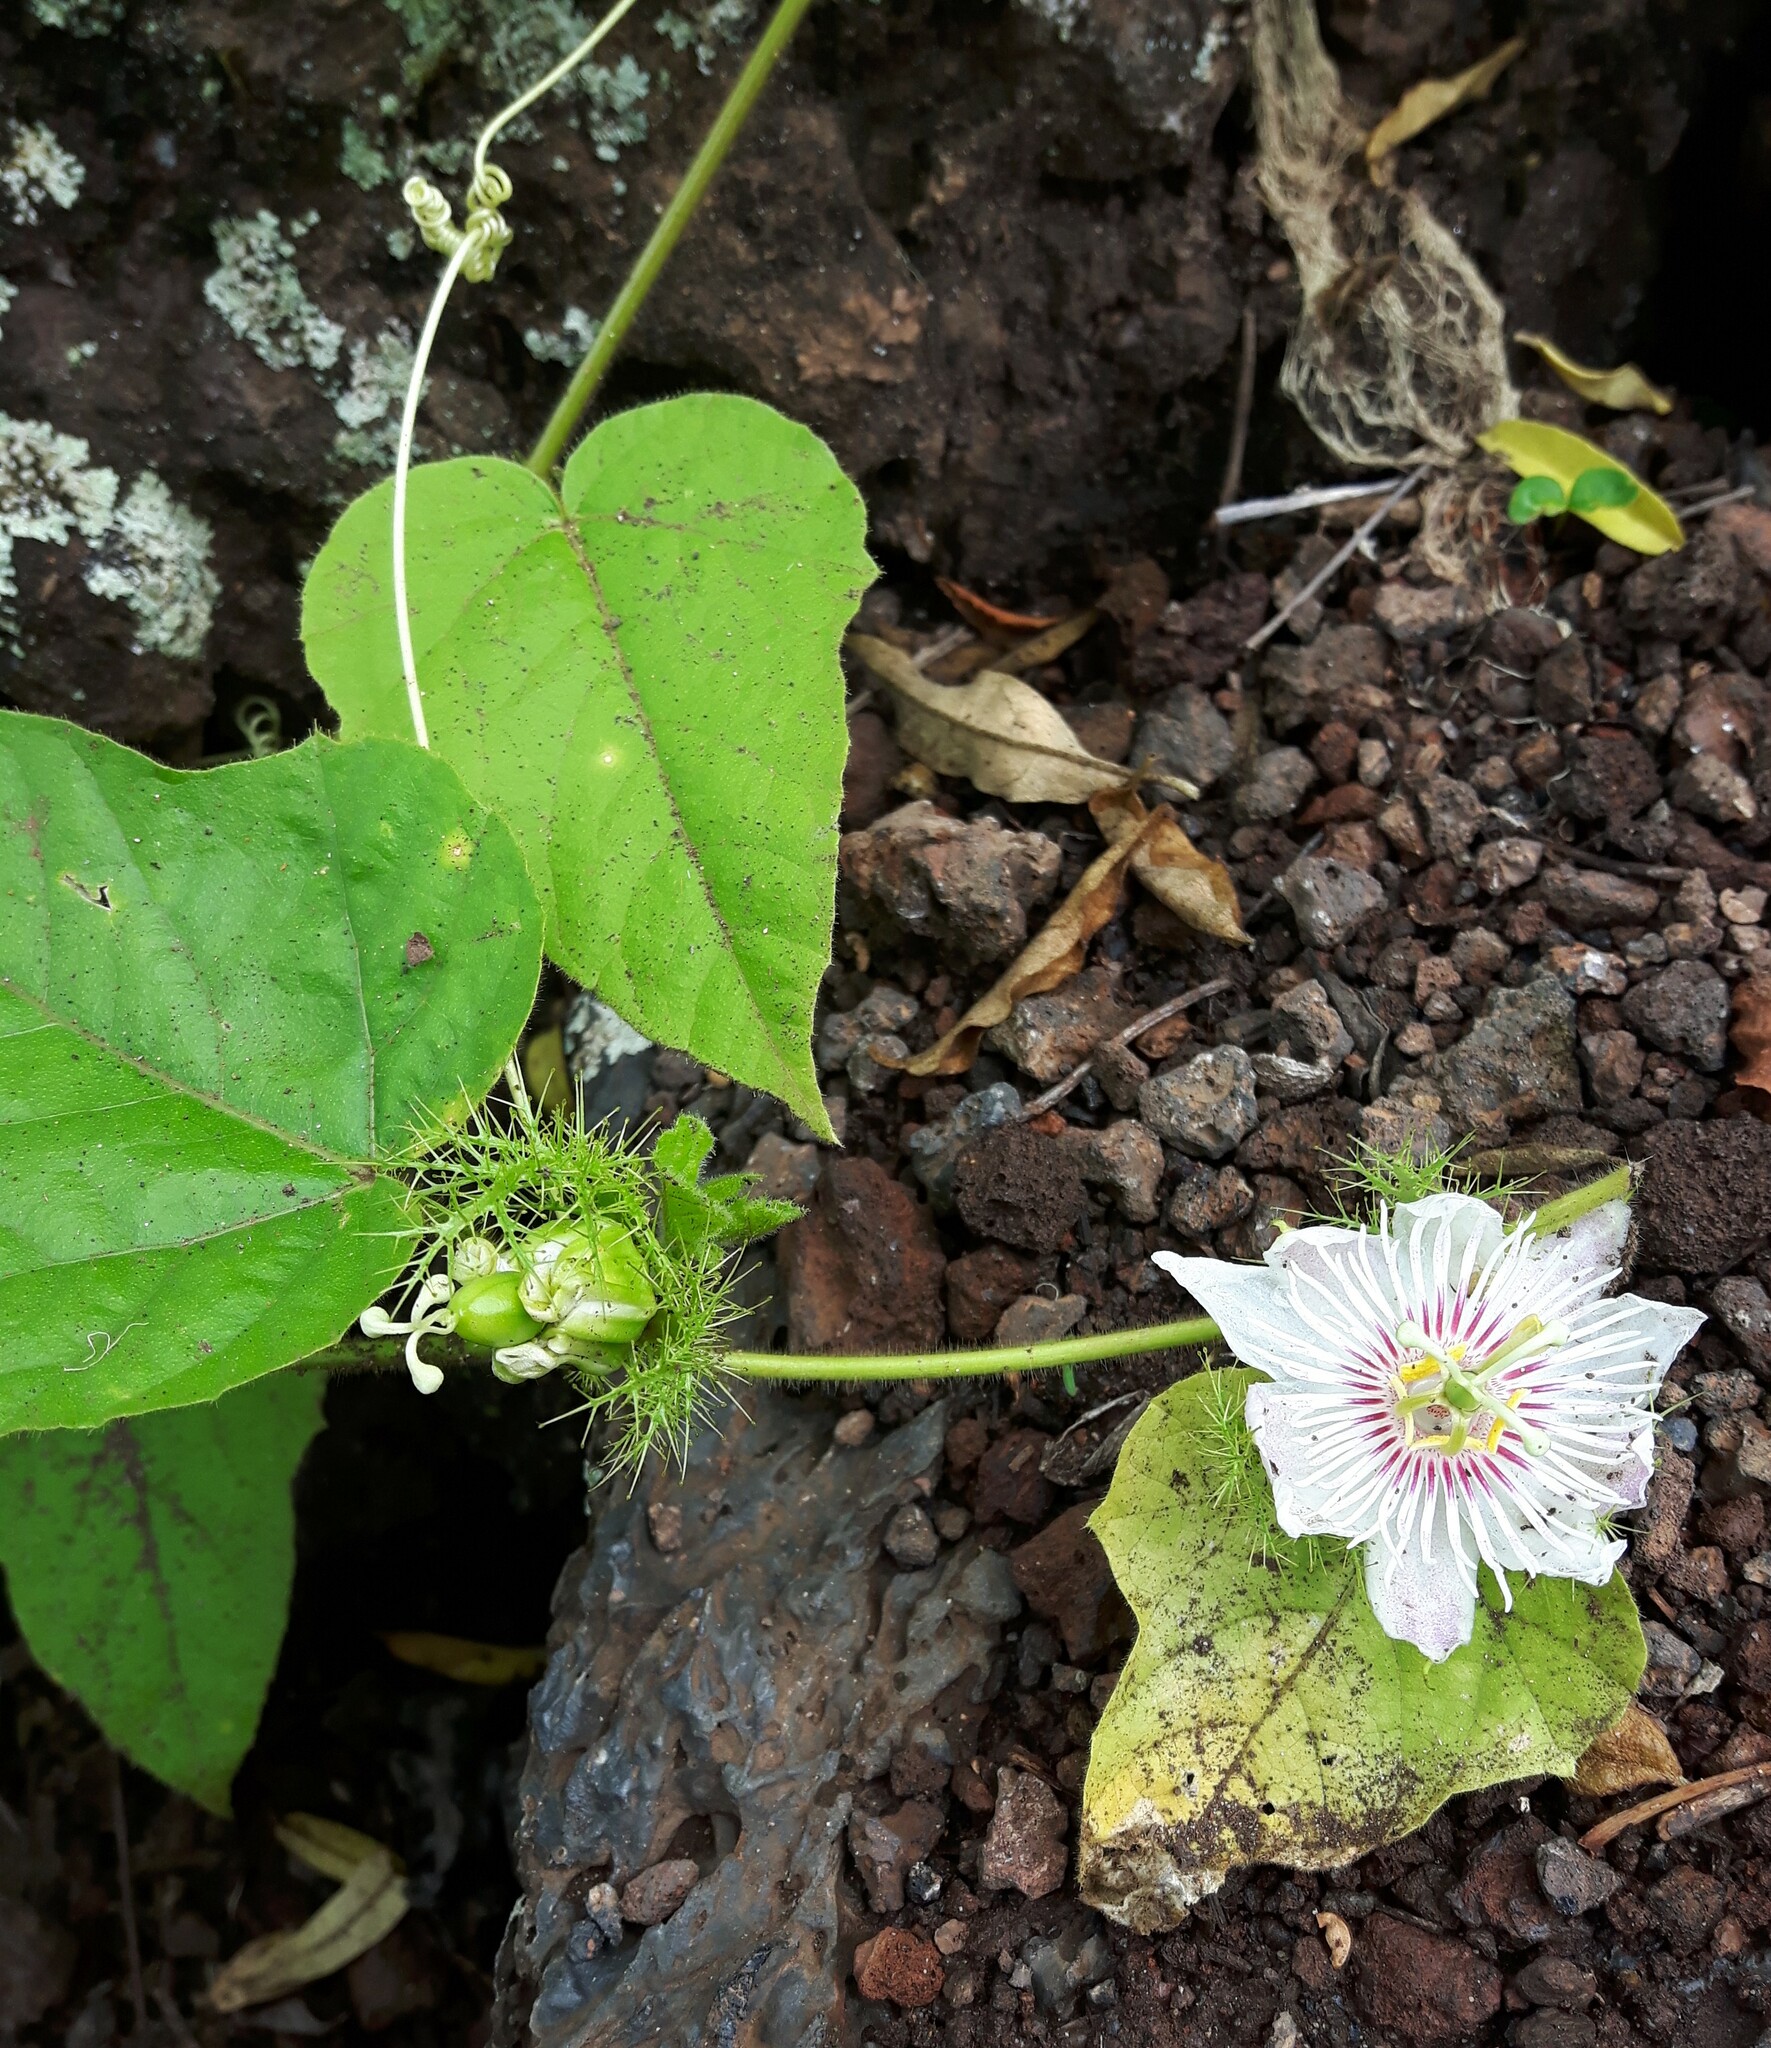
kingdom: Plantae
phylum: Tracheophyta
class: Magnoliopsida
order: Malpighiales
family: Passifloraceae
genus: Passiflora
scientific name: Passiflora vesicaria
